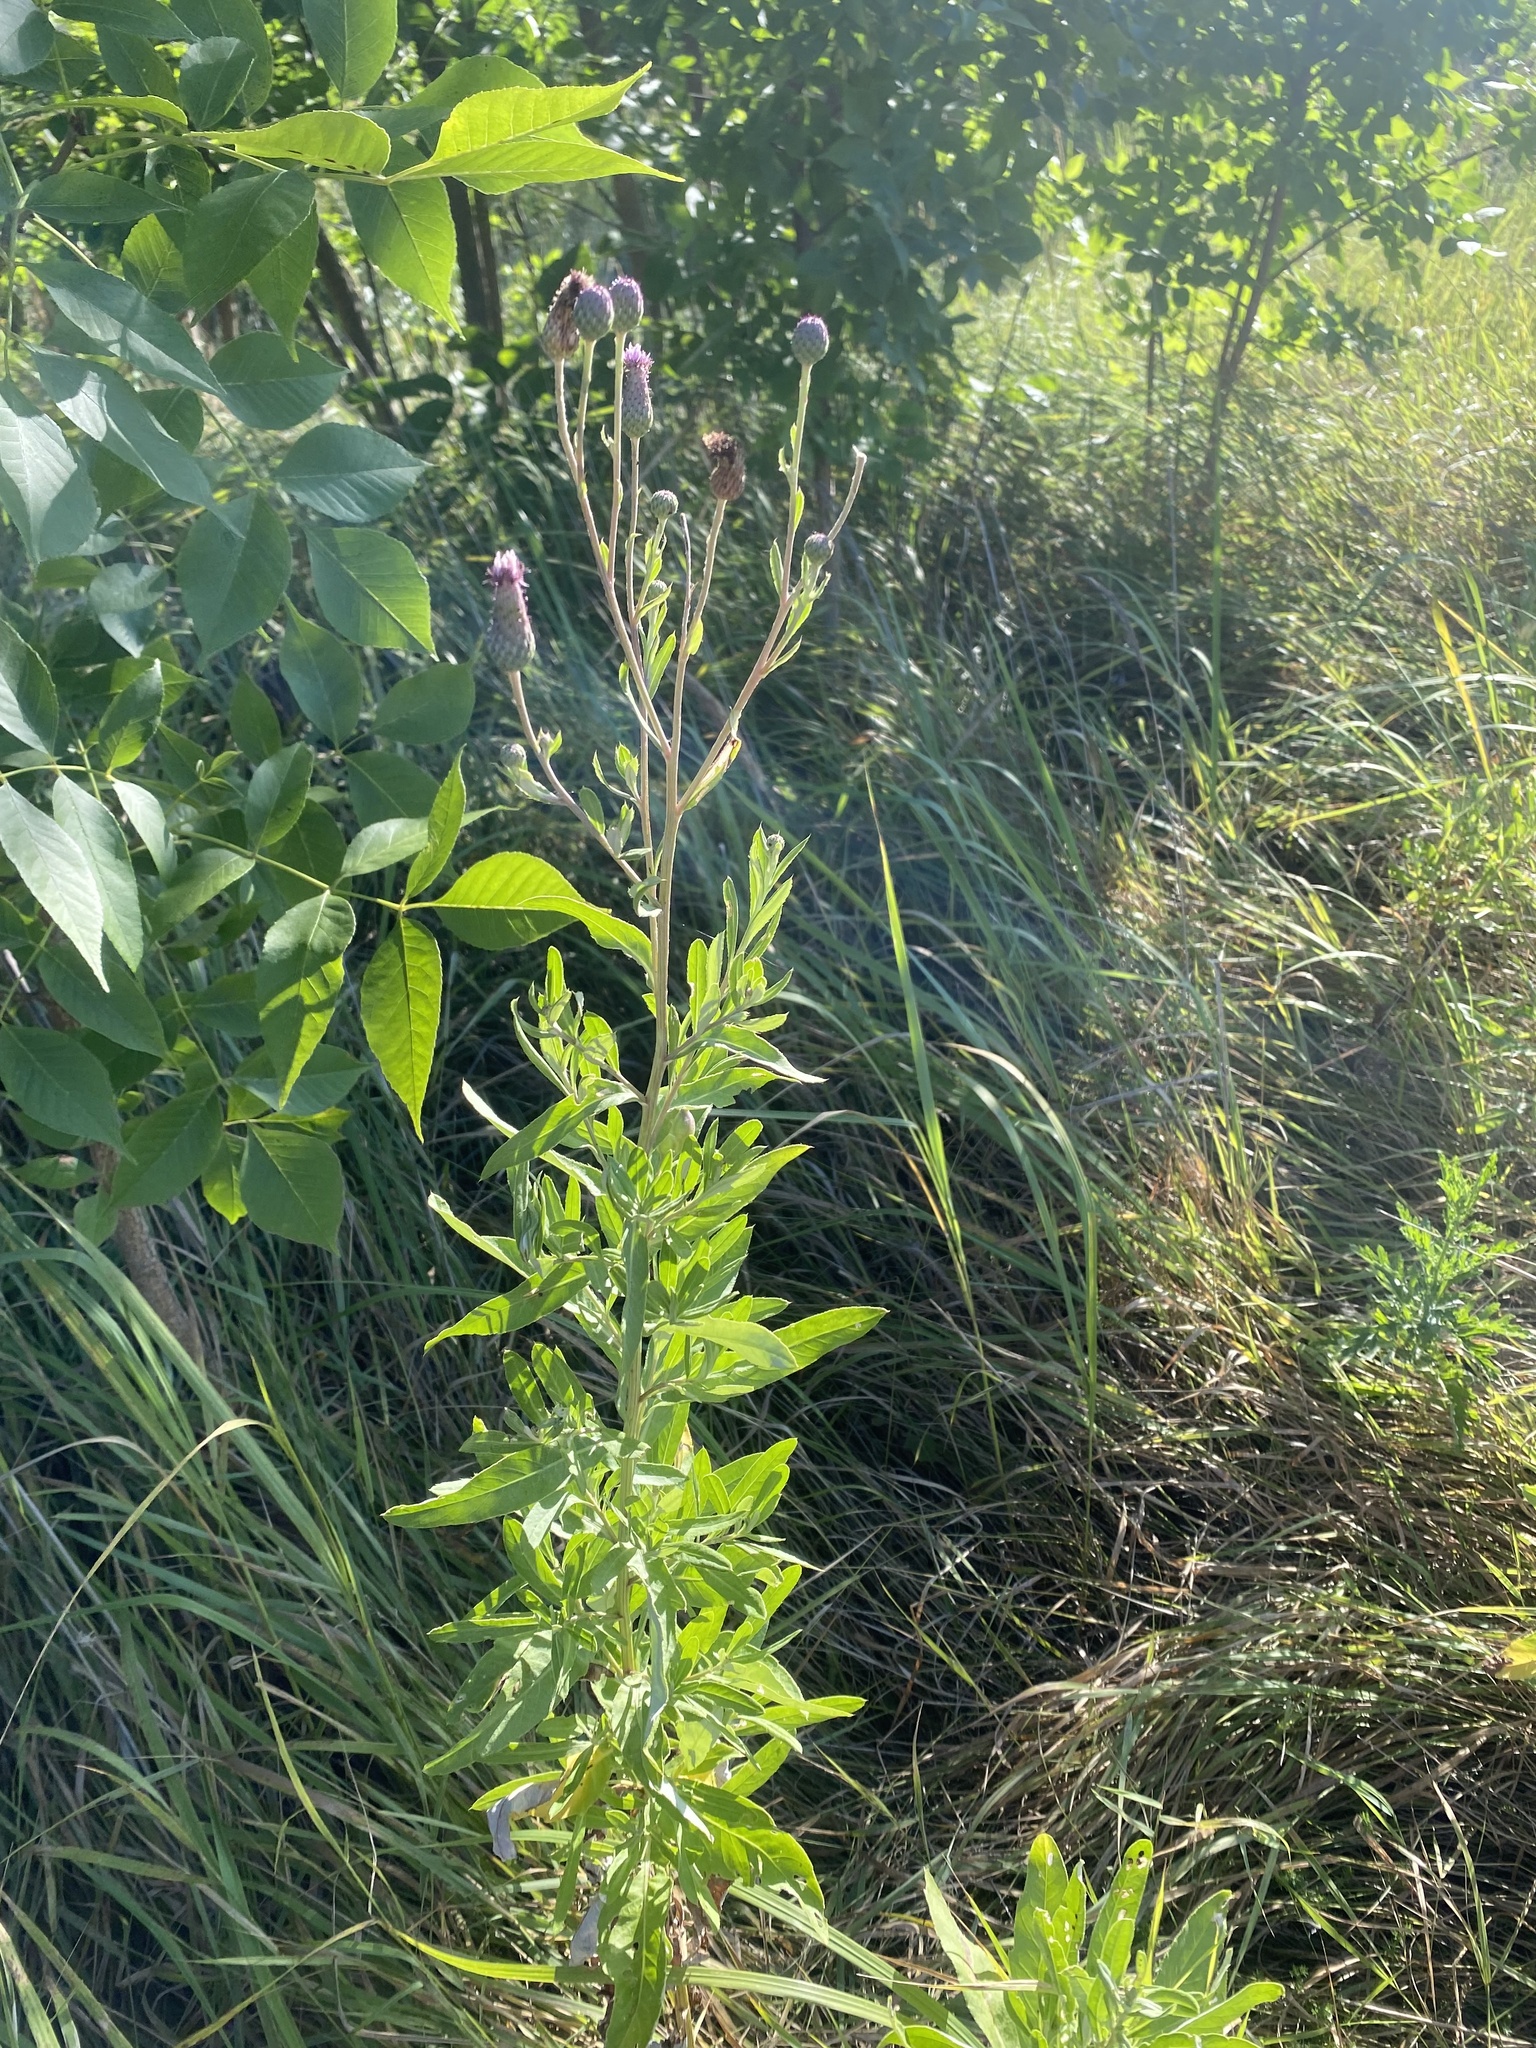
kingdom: Plantae
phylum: Tracheophyta
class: Magnoliopsida
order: Asterales
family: Asteraceae
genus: Cirsium
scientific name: Cirsium arvense
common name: Creeping thistle
